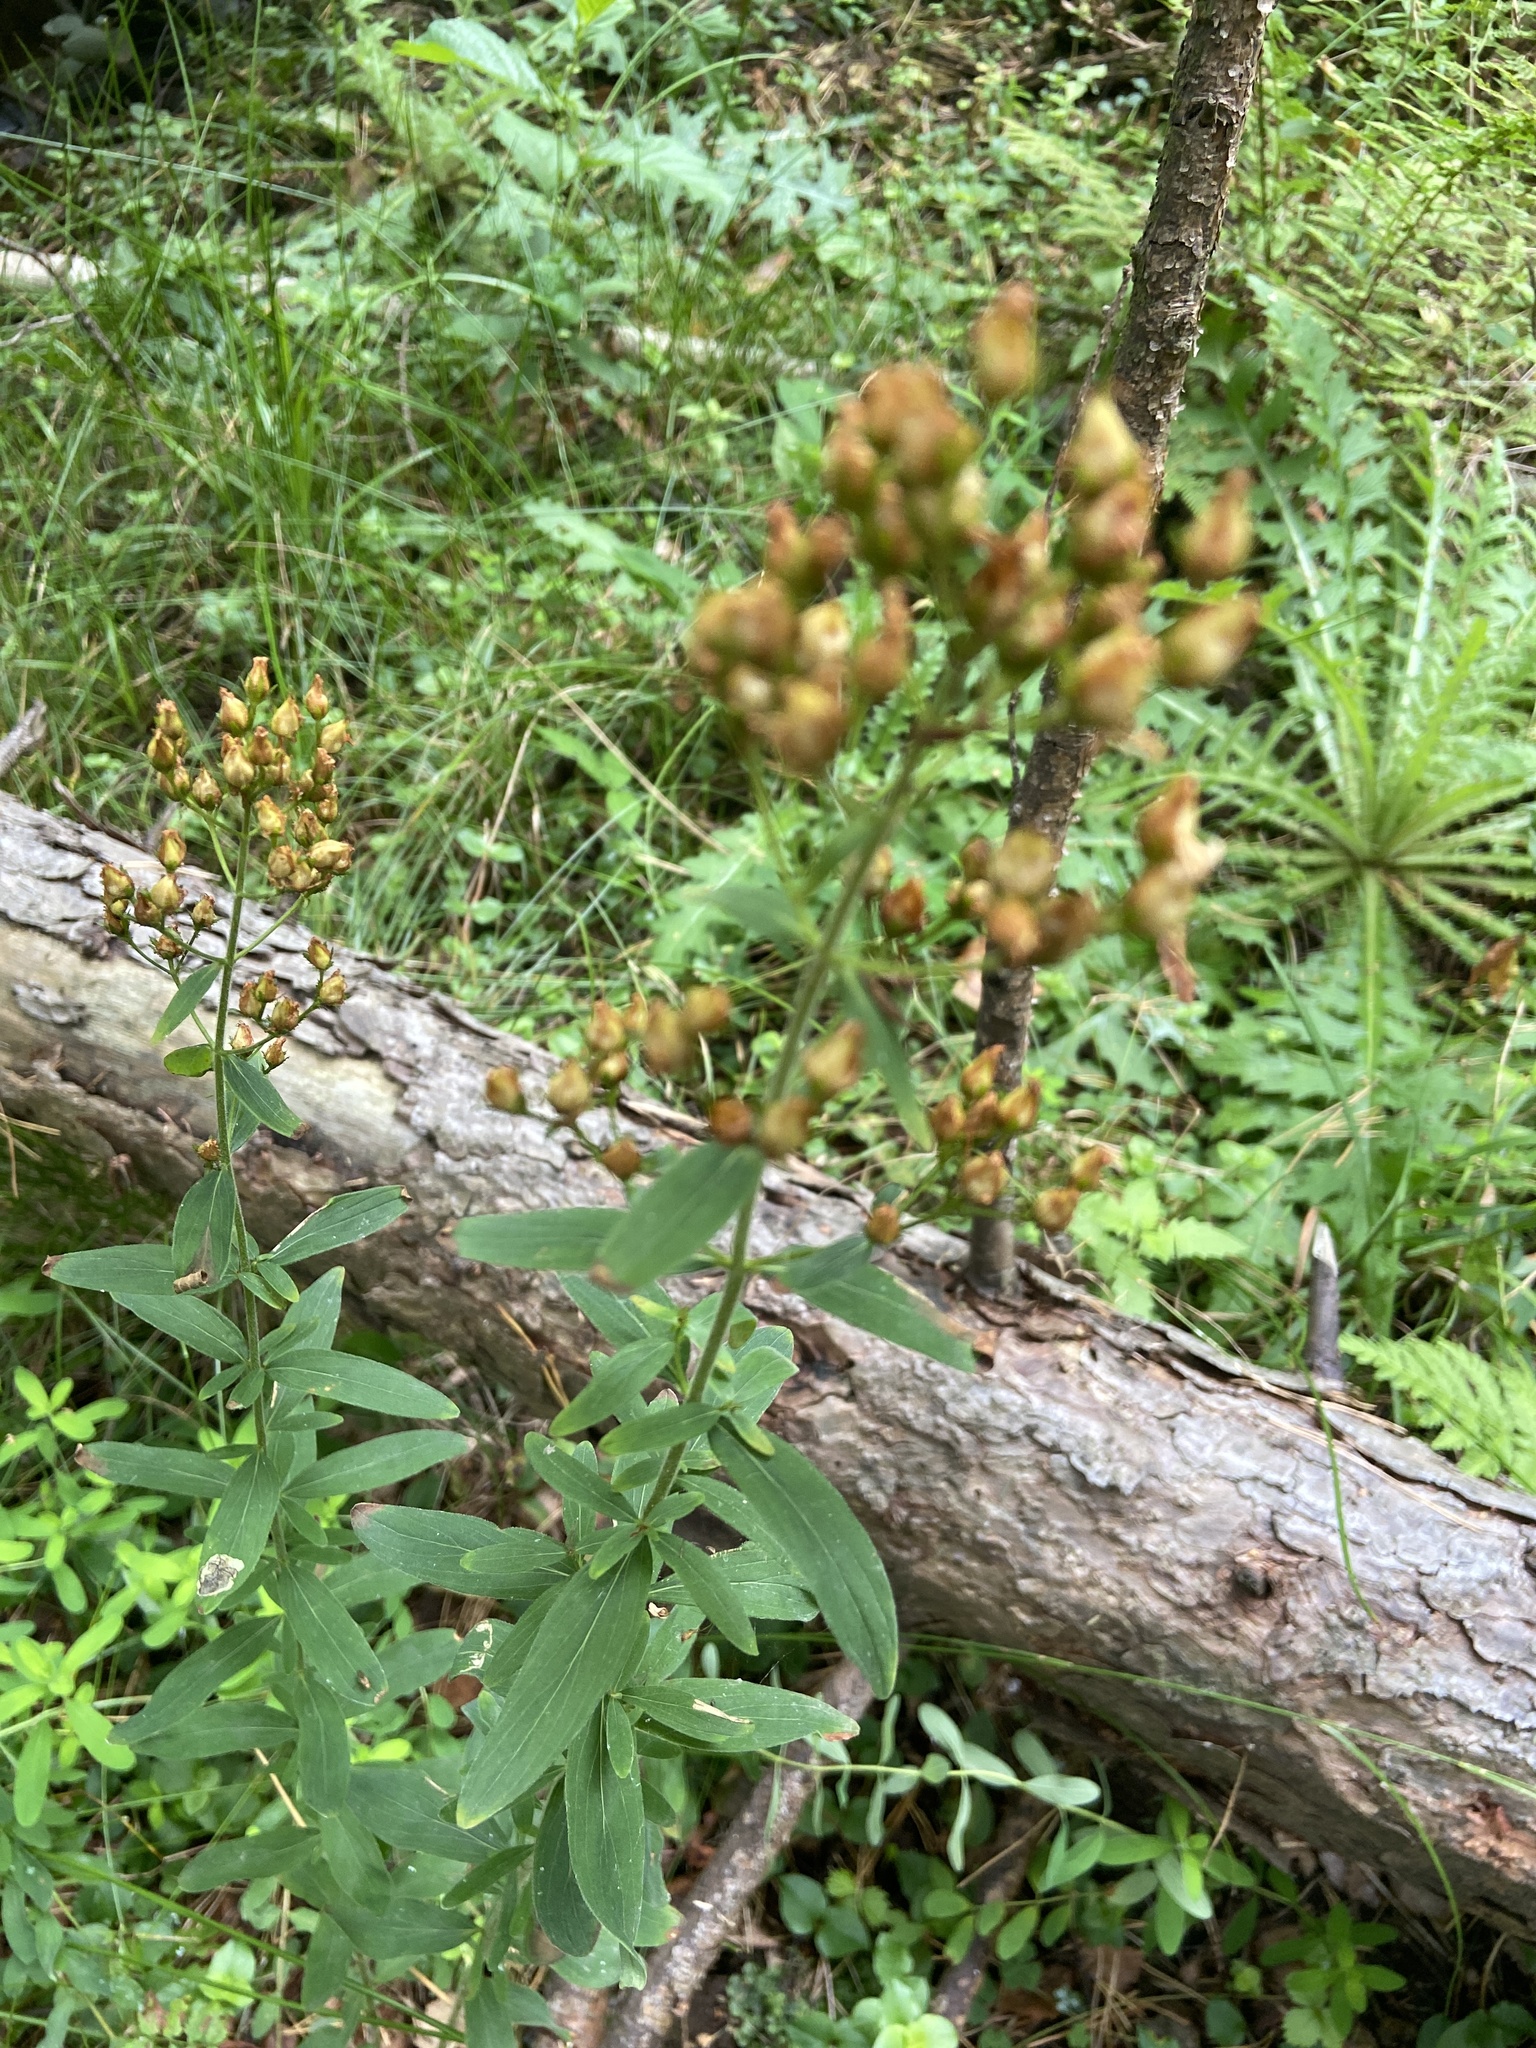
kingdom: Plantae
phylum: Tracheophyta
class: Magnoliopsida
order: Malpighiales
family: Hypericaceae
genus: Hypericum
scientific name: Hypericum hirsutum
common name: Hairy st. john's-wort
